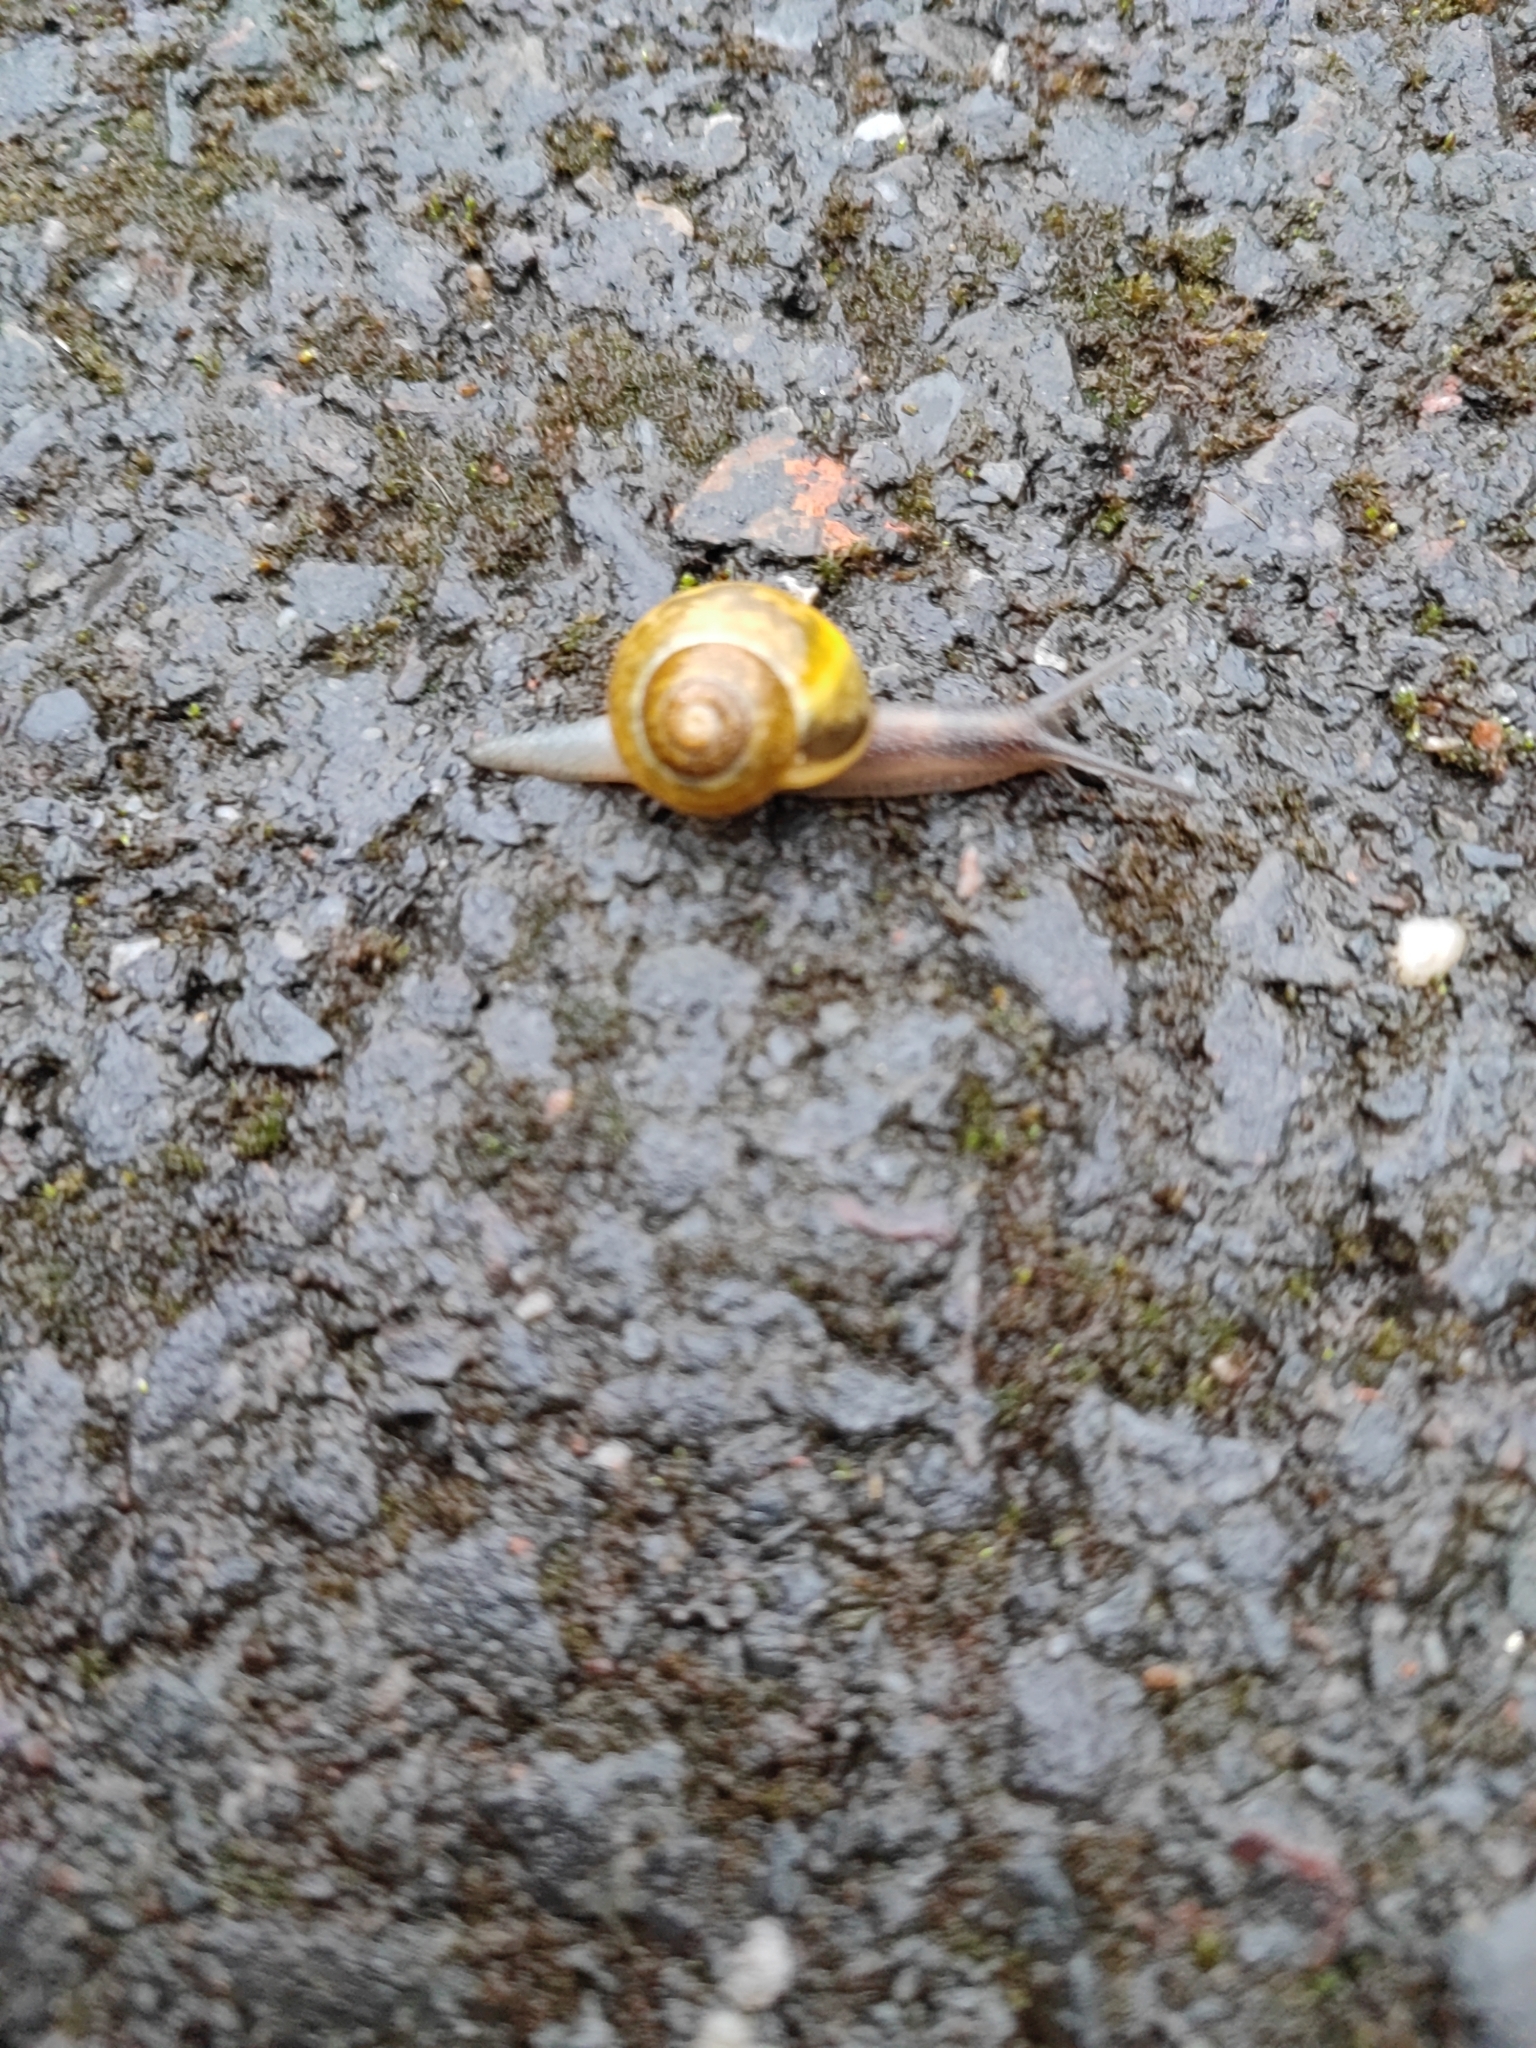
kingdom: Animalia
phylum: Mollusca
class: Gastropoda
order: Stylommatophora
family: Helicidae
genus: Cepaea
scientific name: Cepaea
